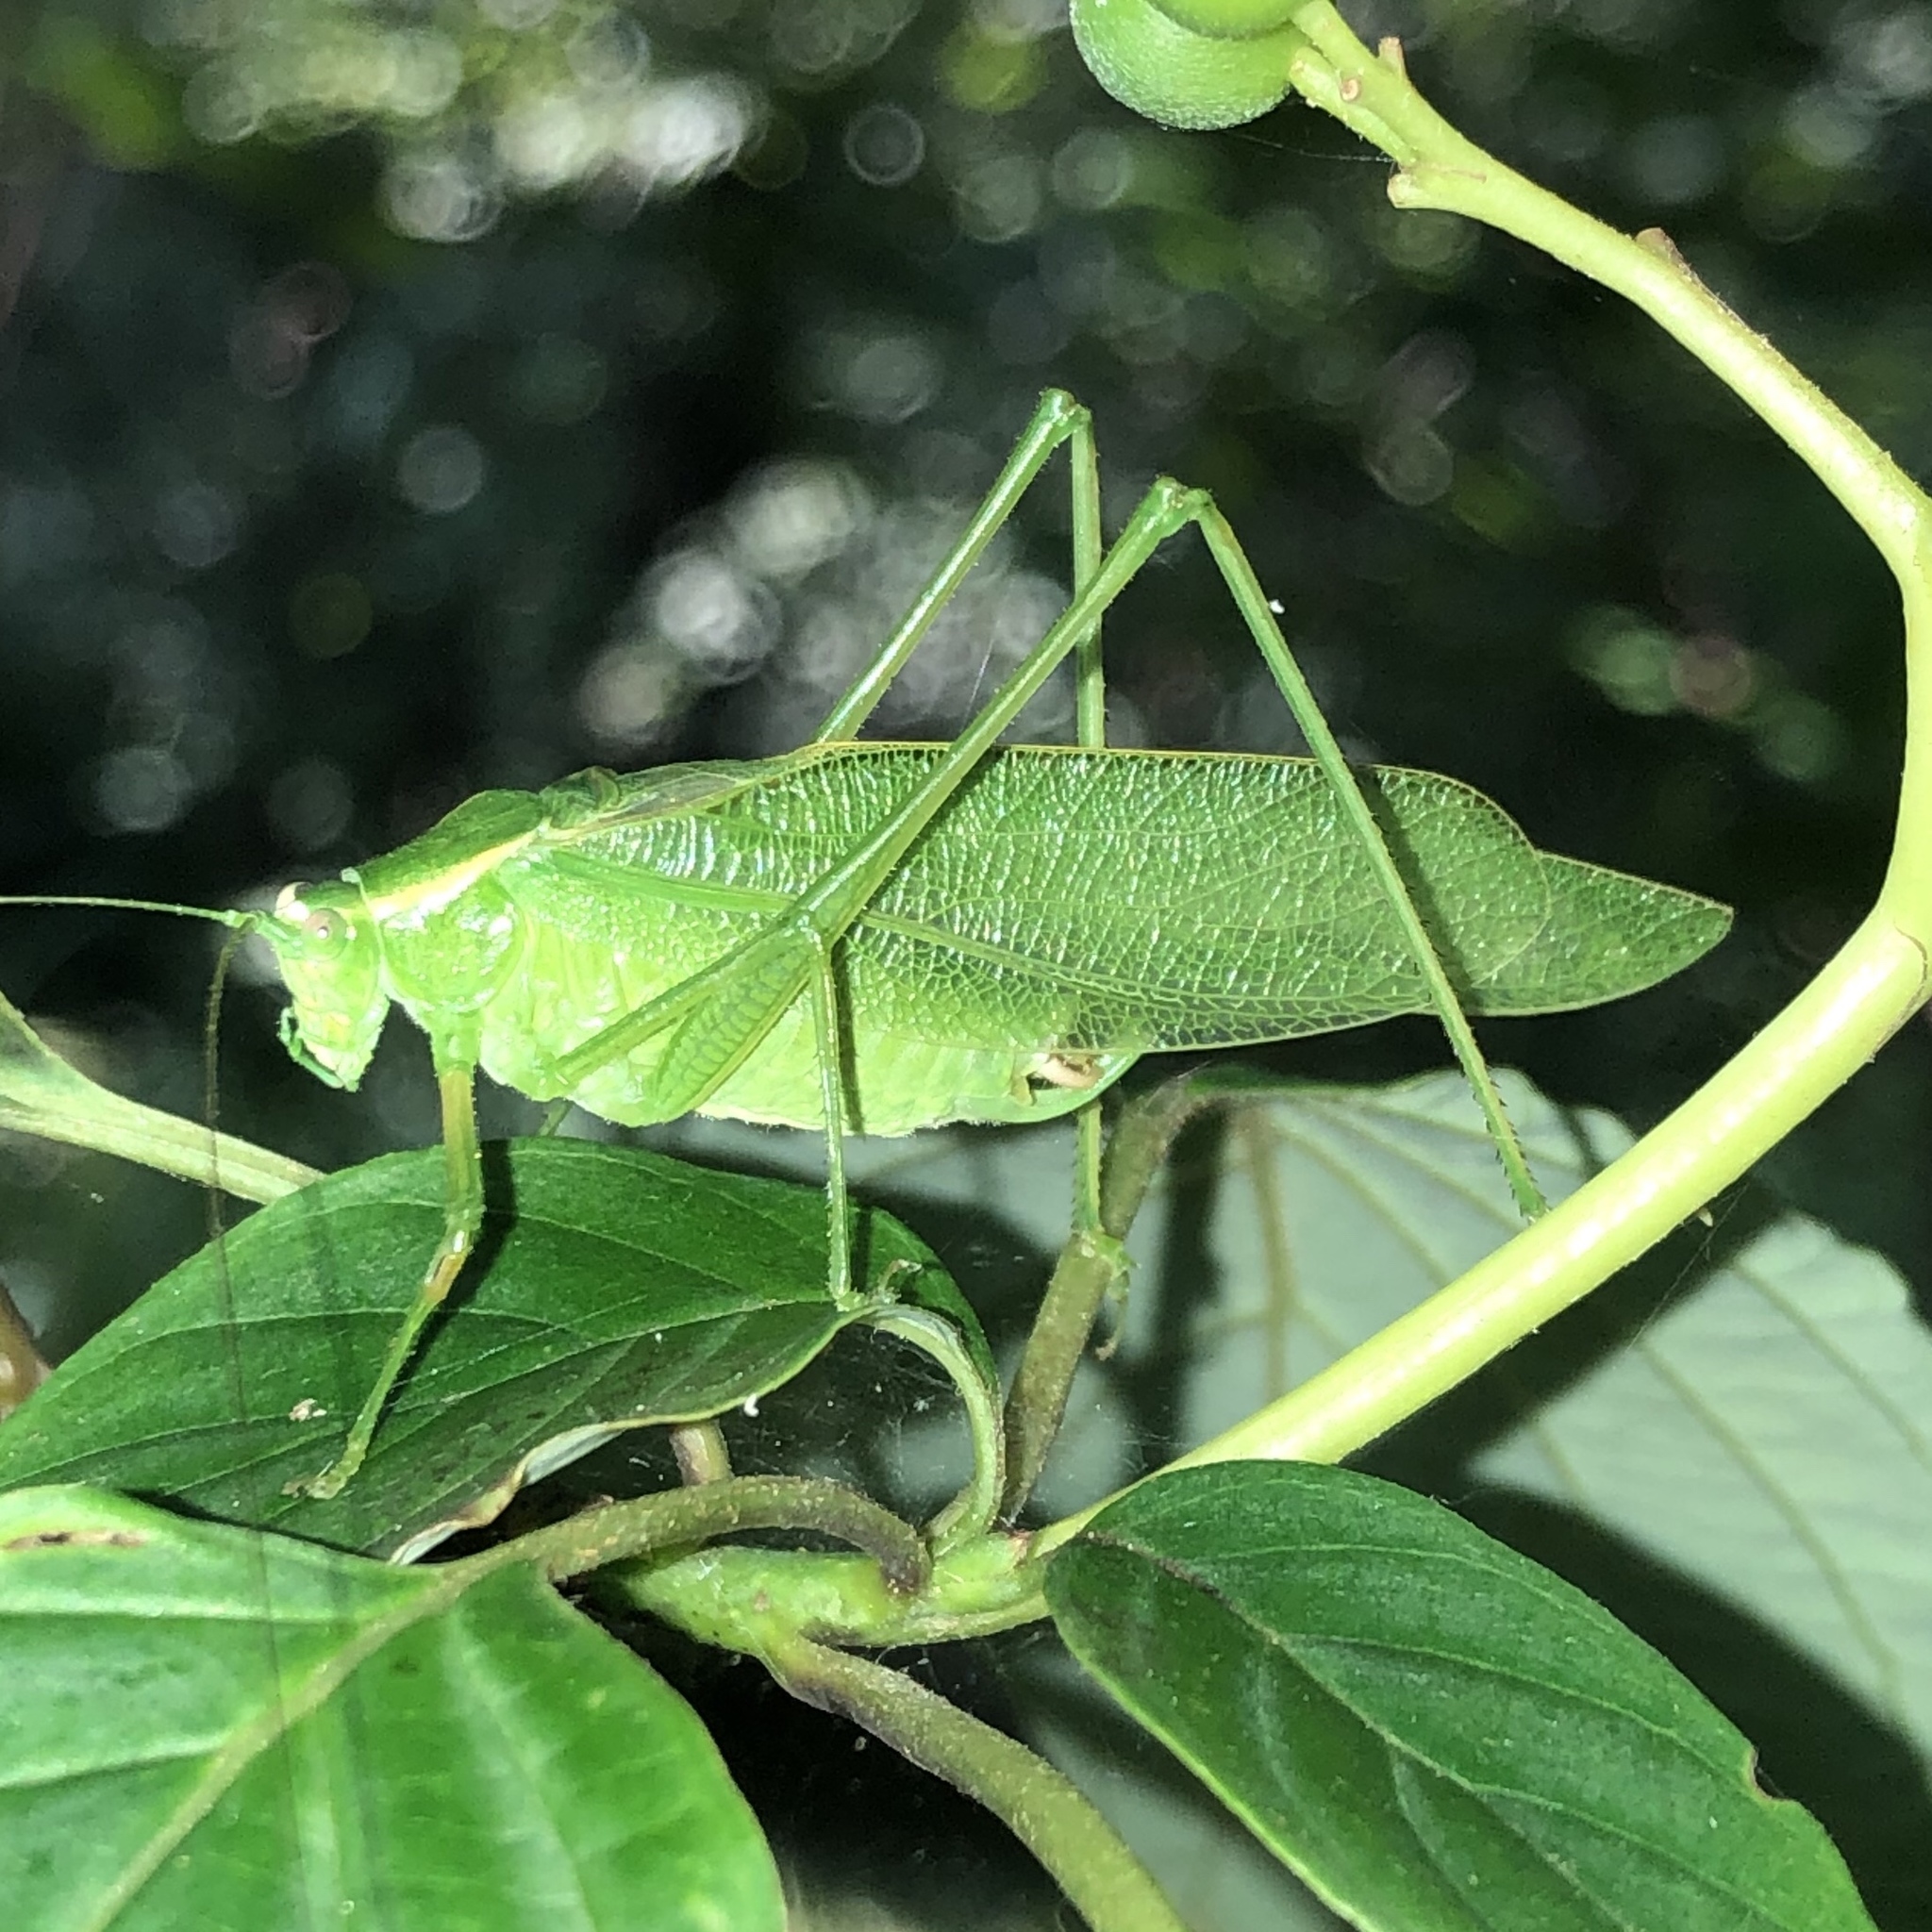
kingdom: Animalia
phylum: Arthropoda
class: Insecta
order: Orthoptera
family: Tettigoniidae
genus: Scudderia
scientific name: Scudderia septentrionalis
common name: Northern bush-katydid
